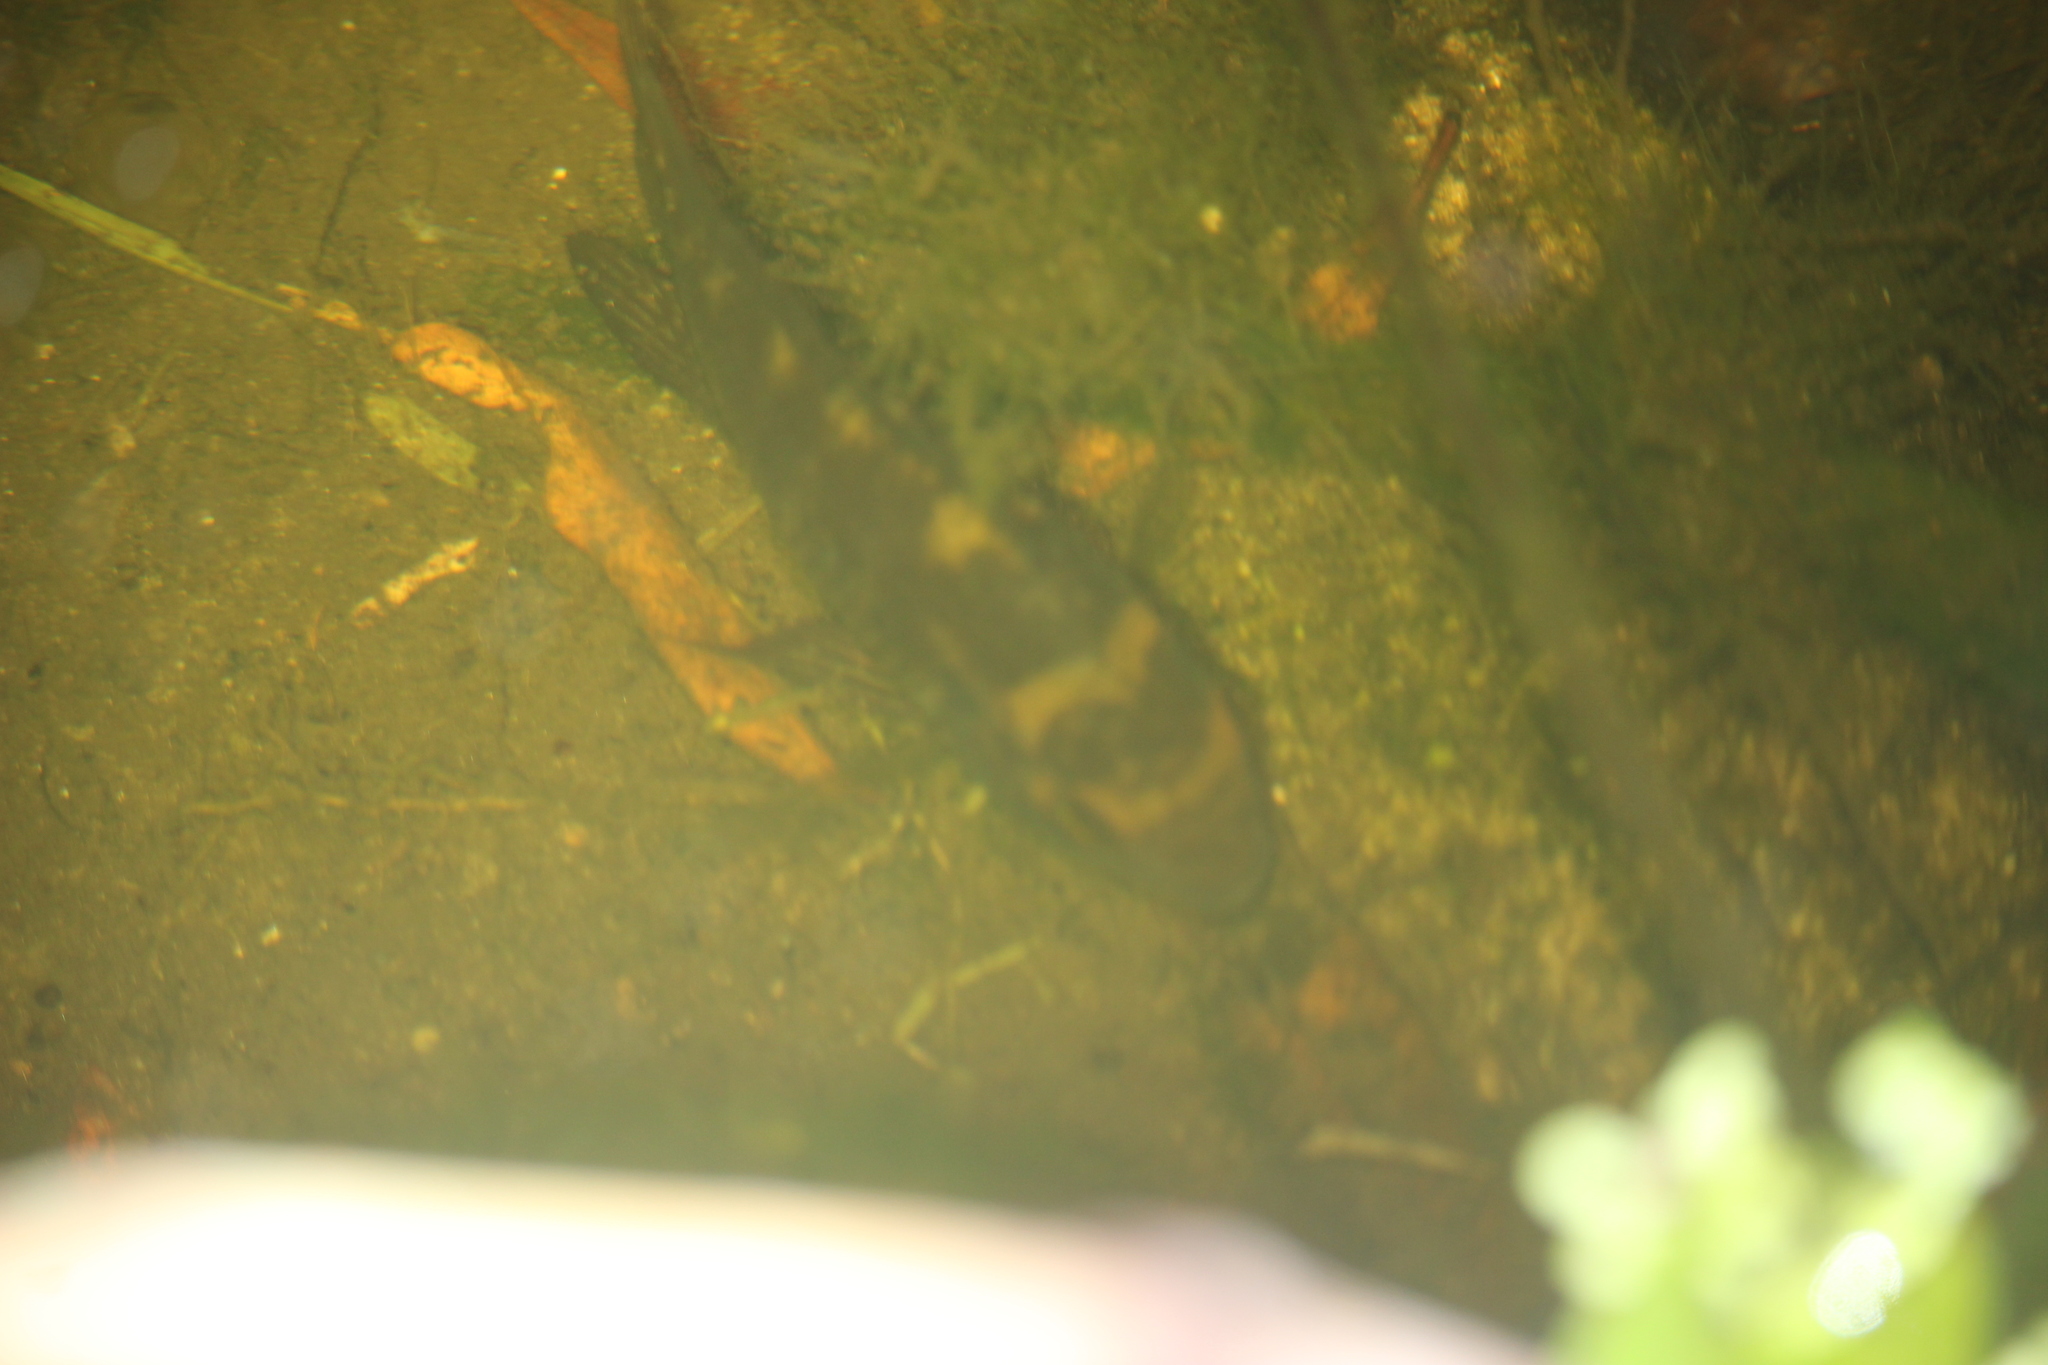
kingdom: Animalia
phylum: Chordata
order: Perciformes
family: Cichlidae
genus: Cichlasoma
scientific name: Cichlasoma dimerus
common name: Chanchita
